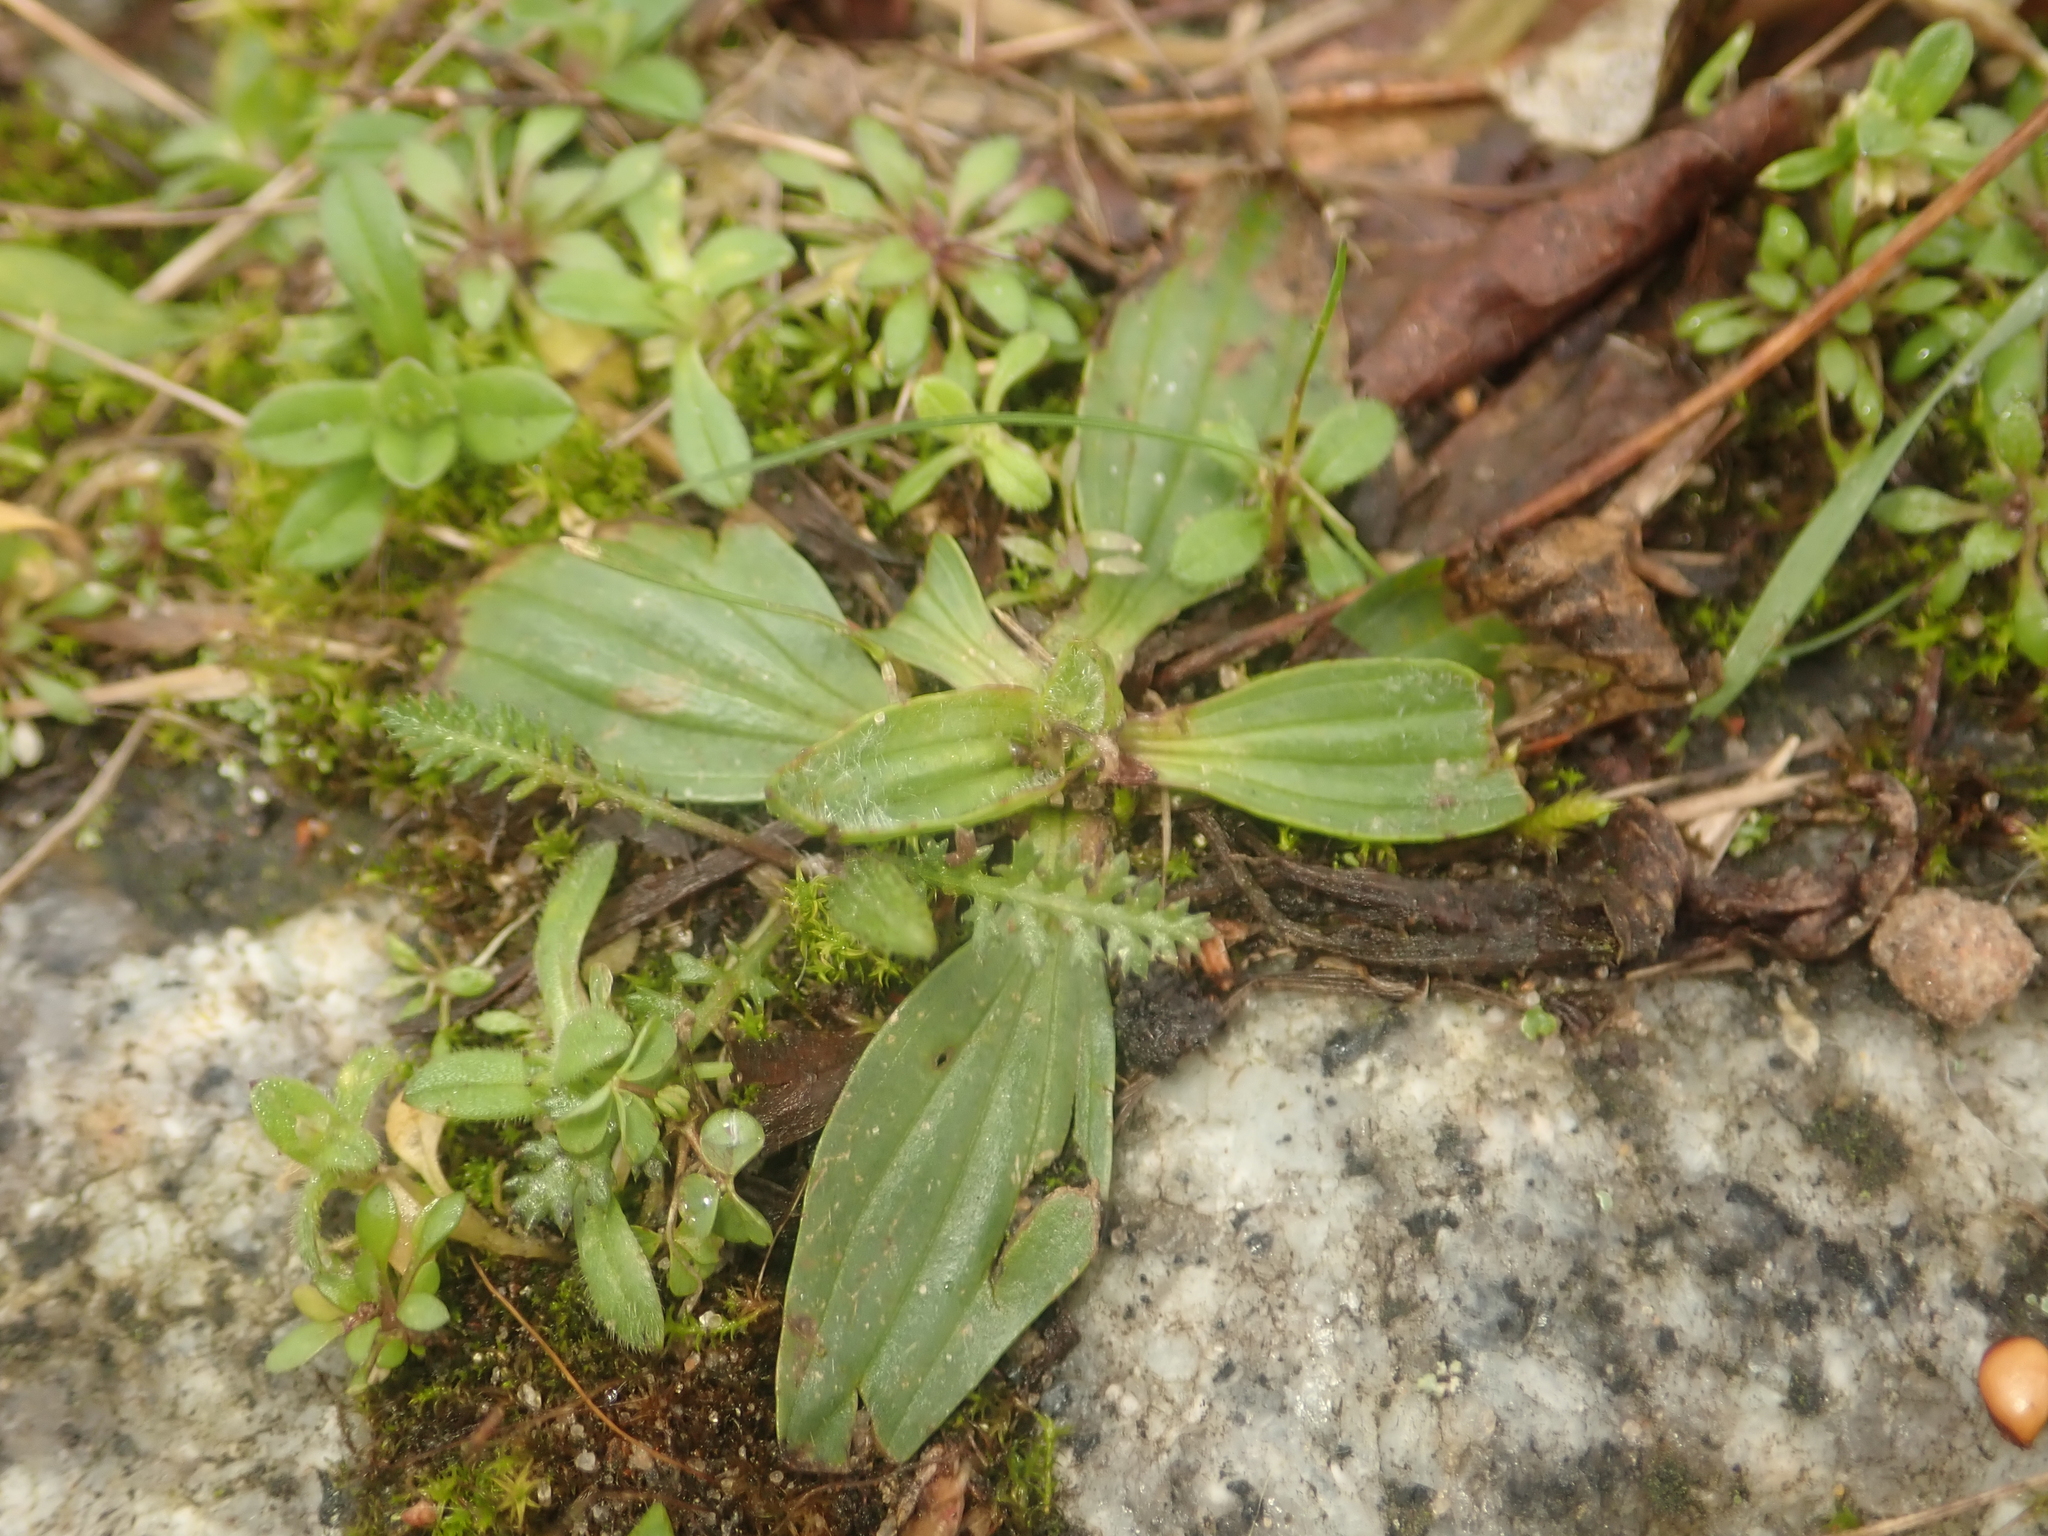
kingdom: Plantae
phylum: Tracheophyta
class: Magnoliopsida
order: Lamiales
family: Plantaginaceae
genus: Plantago
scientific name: Plantago lanceolata
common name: Ribwort plantain
